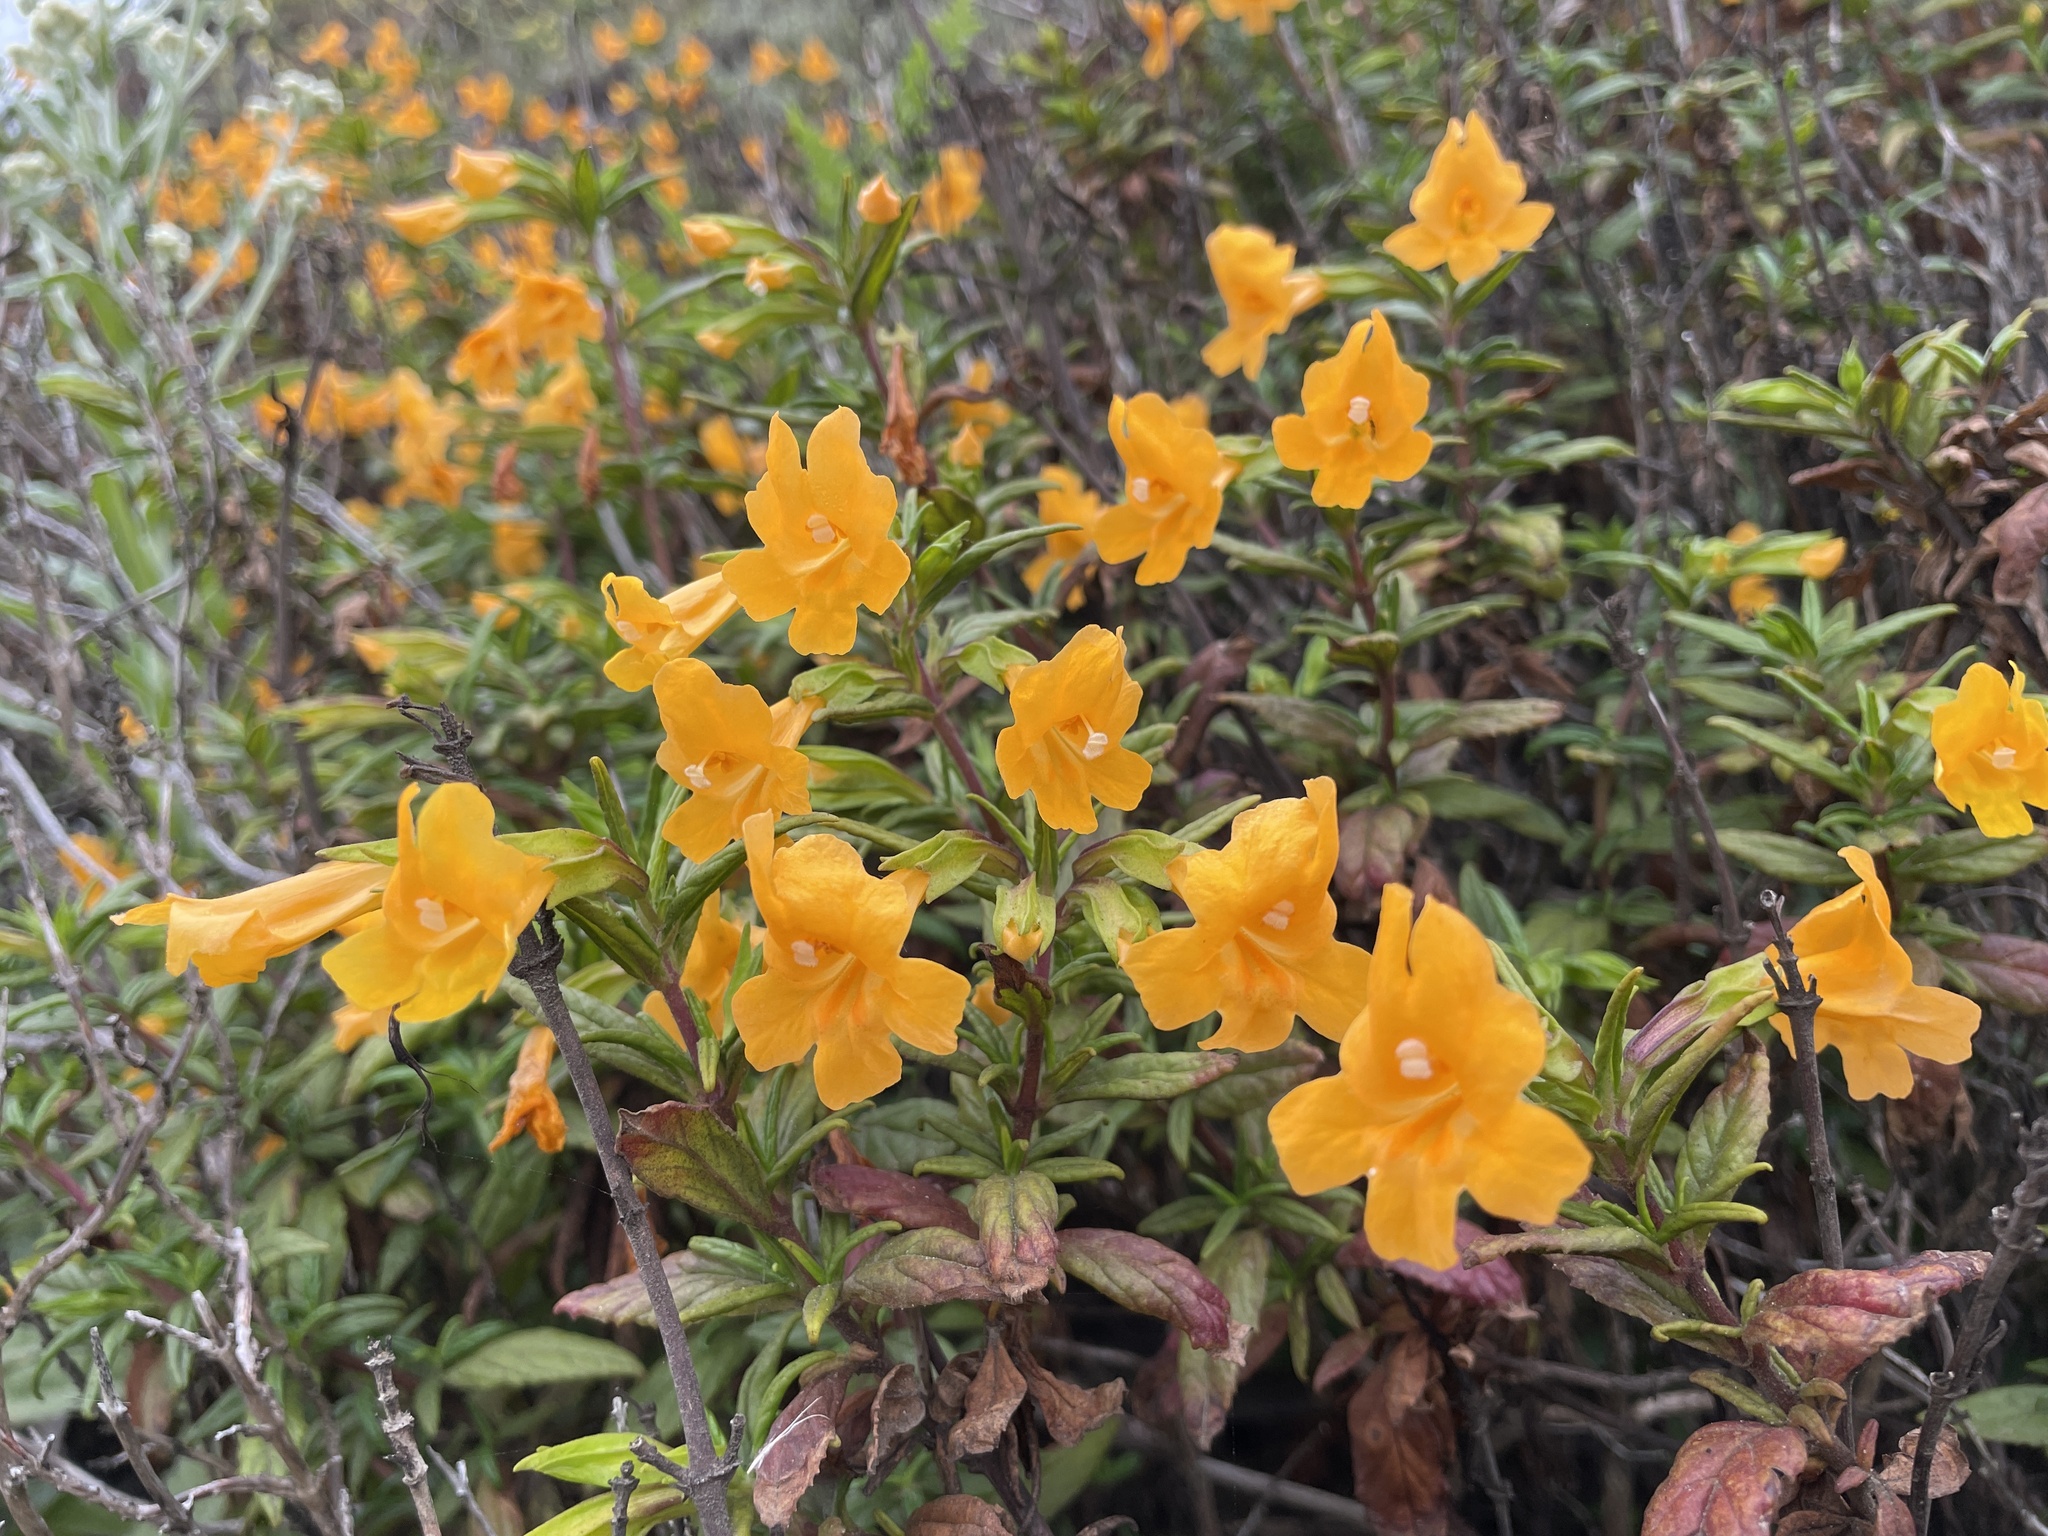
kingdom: Plantae
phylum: Tracheophyta
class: Magnoliopsida
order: Lamiales
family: Phrymaceae
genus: Diplacus
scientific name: Diplacus aurantiacus
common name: Bush monkey-flower
